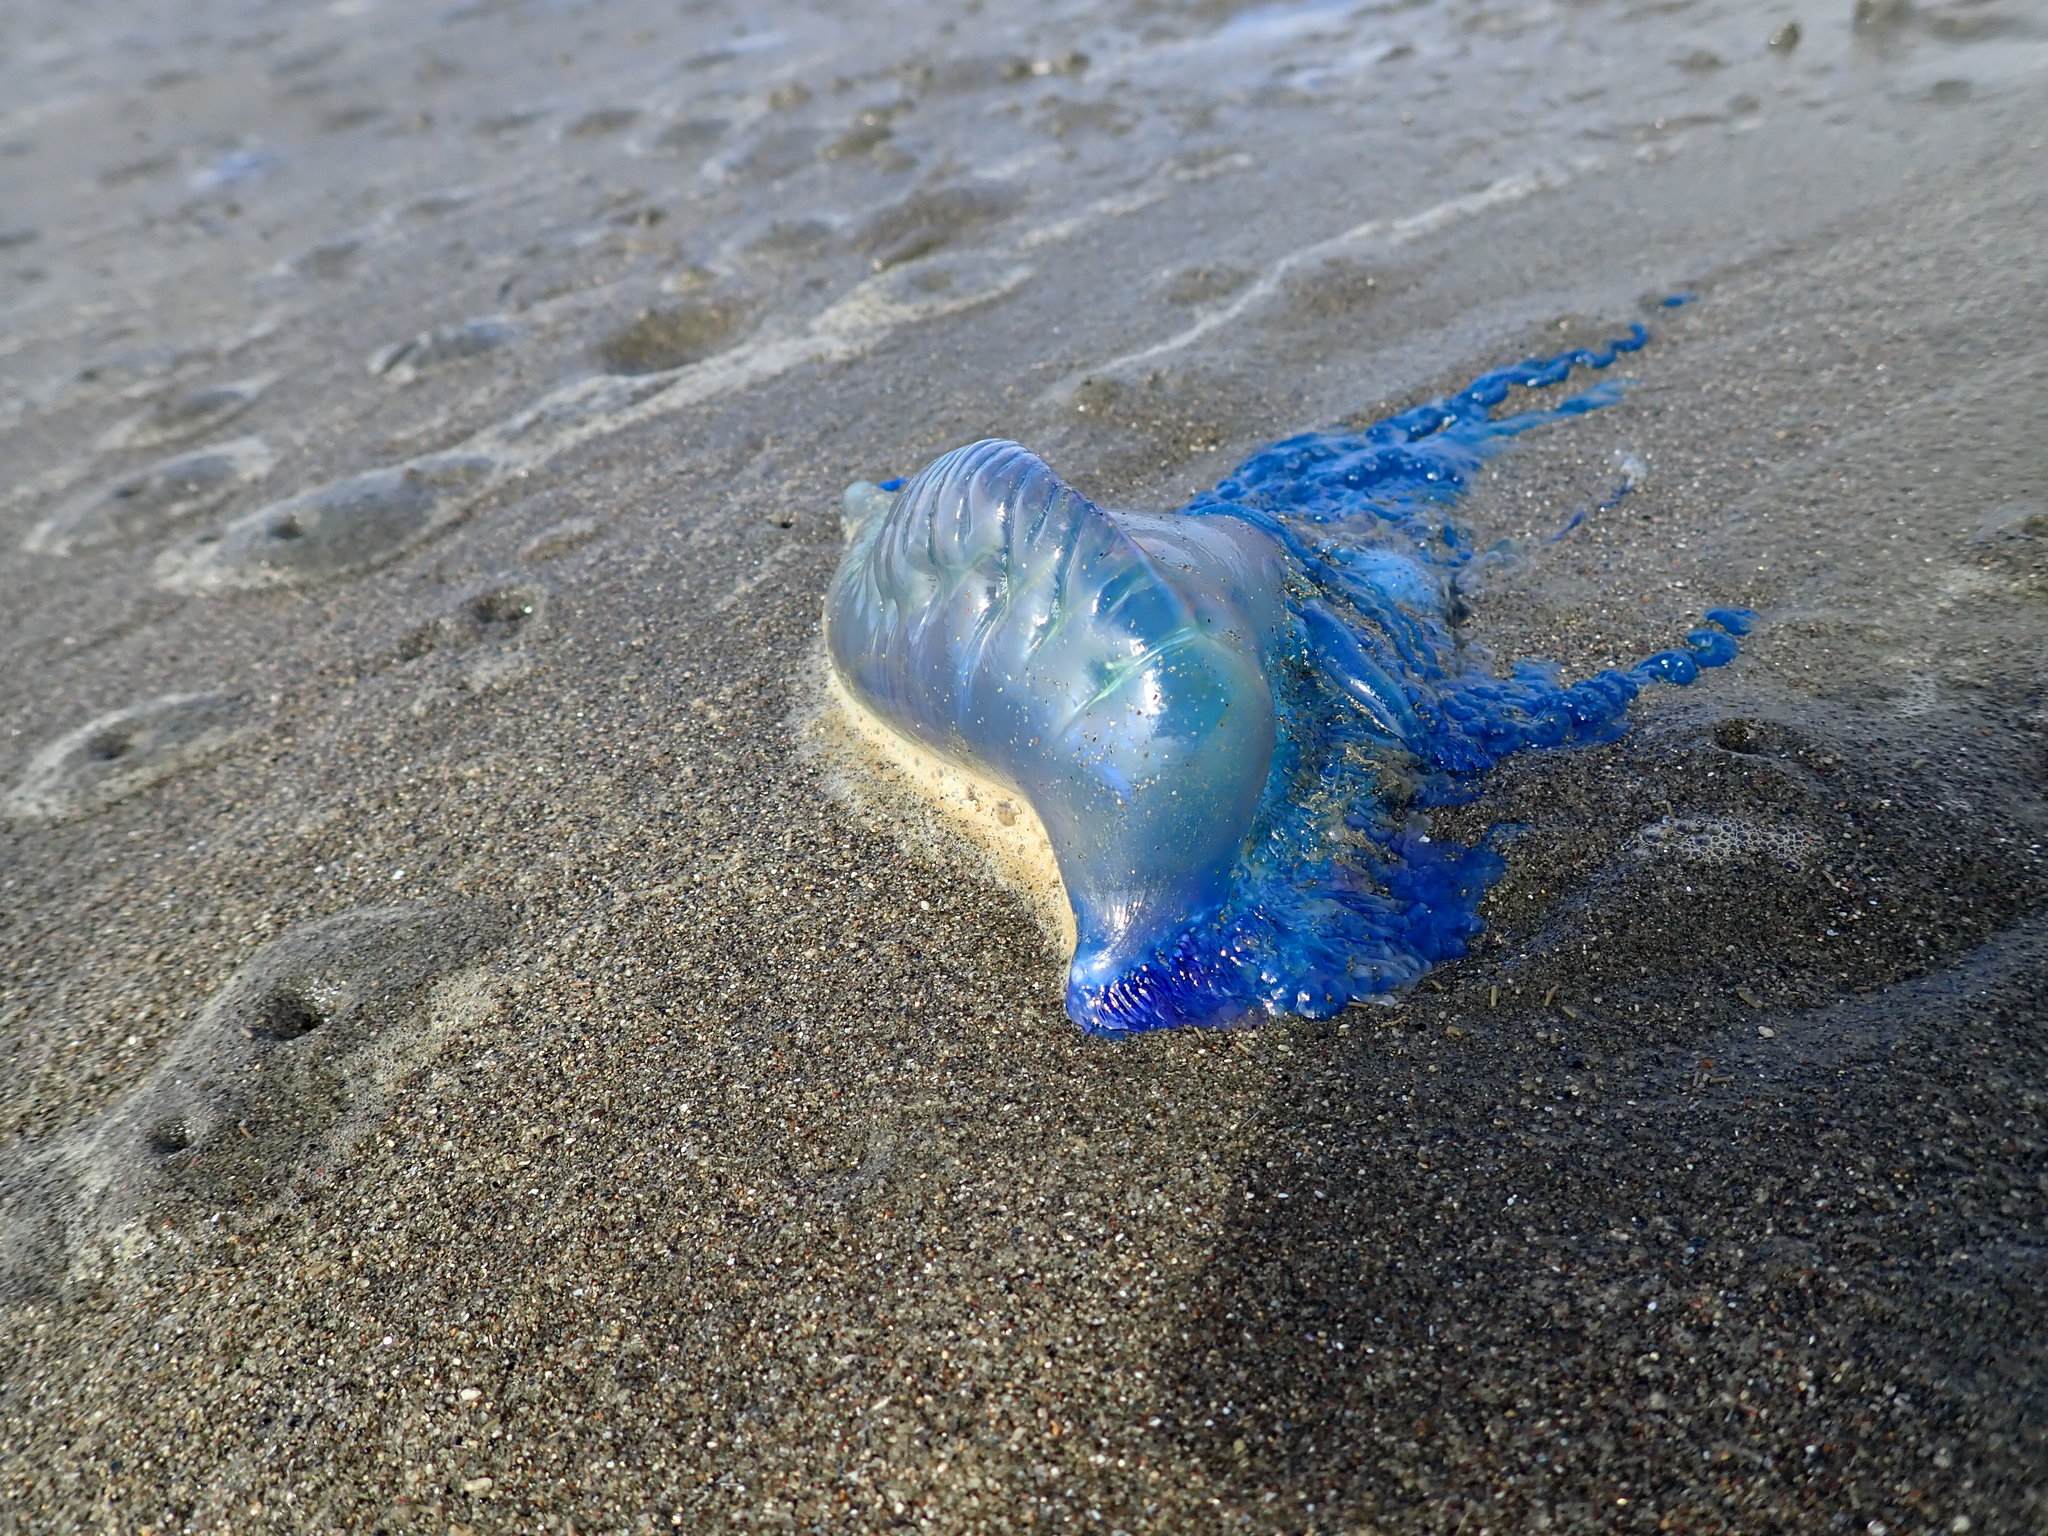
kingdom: Animalia
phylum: Cnidaria
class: Hydrozoa
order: Siphonophorae
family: Physaliidae
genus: Physalia
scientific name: Physalia physalis
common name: Portuguese man-of-war
